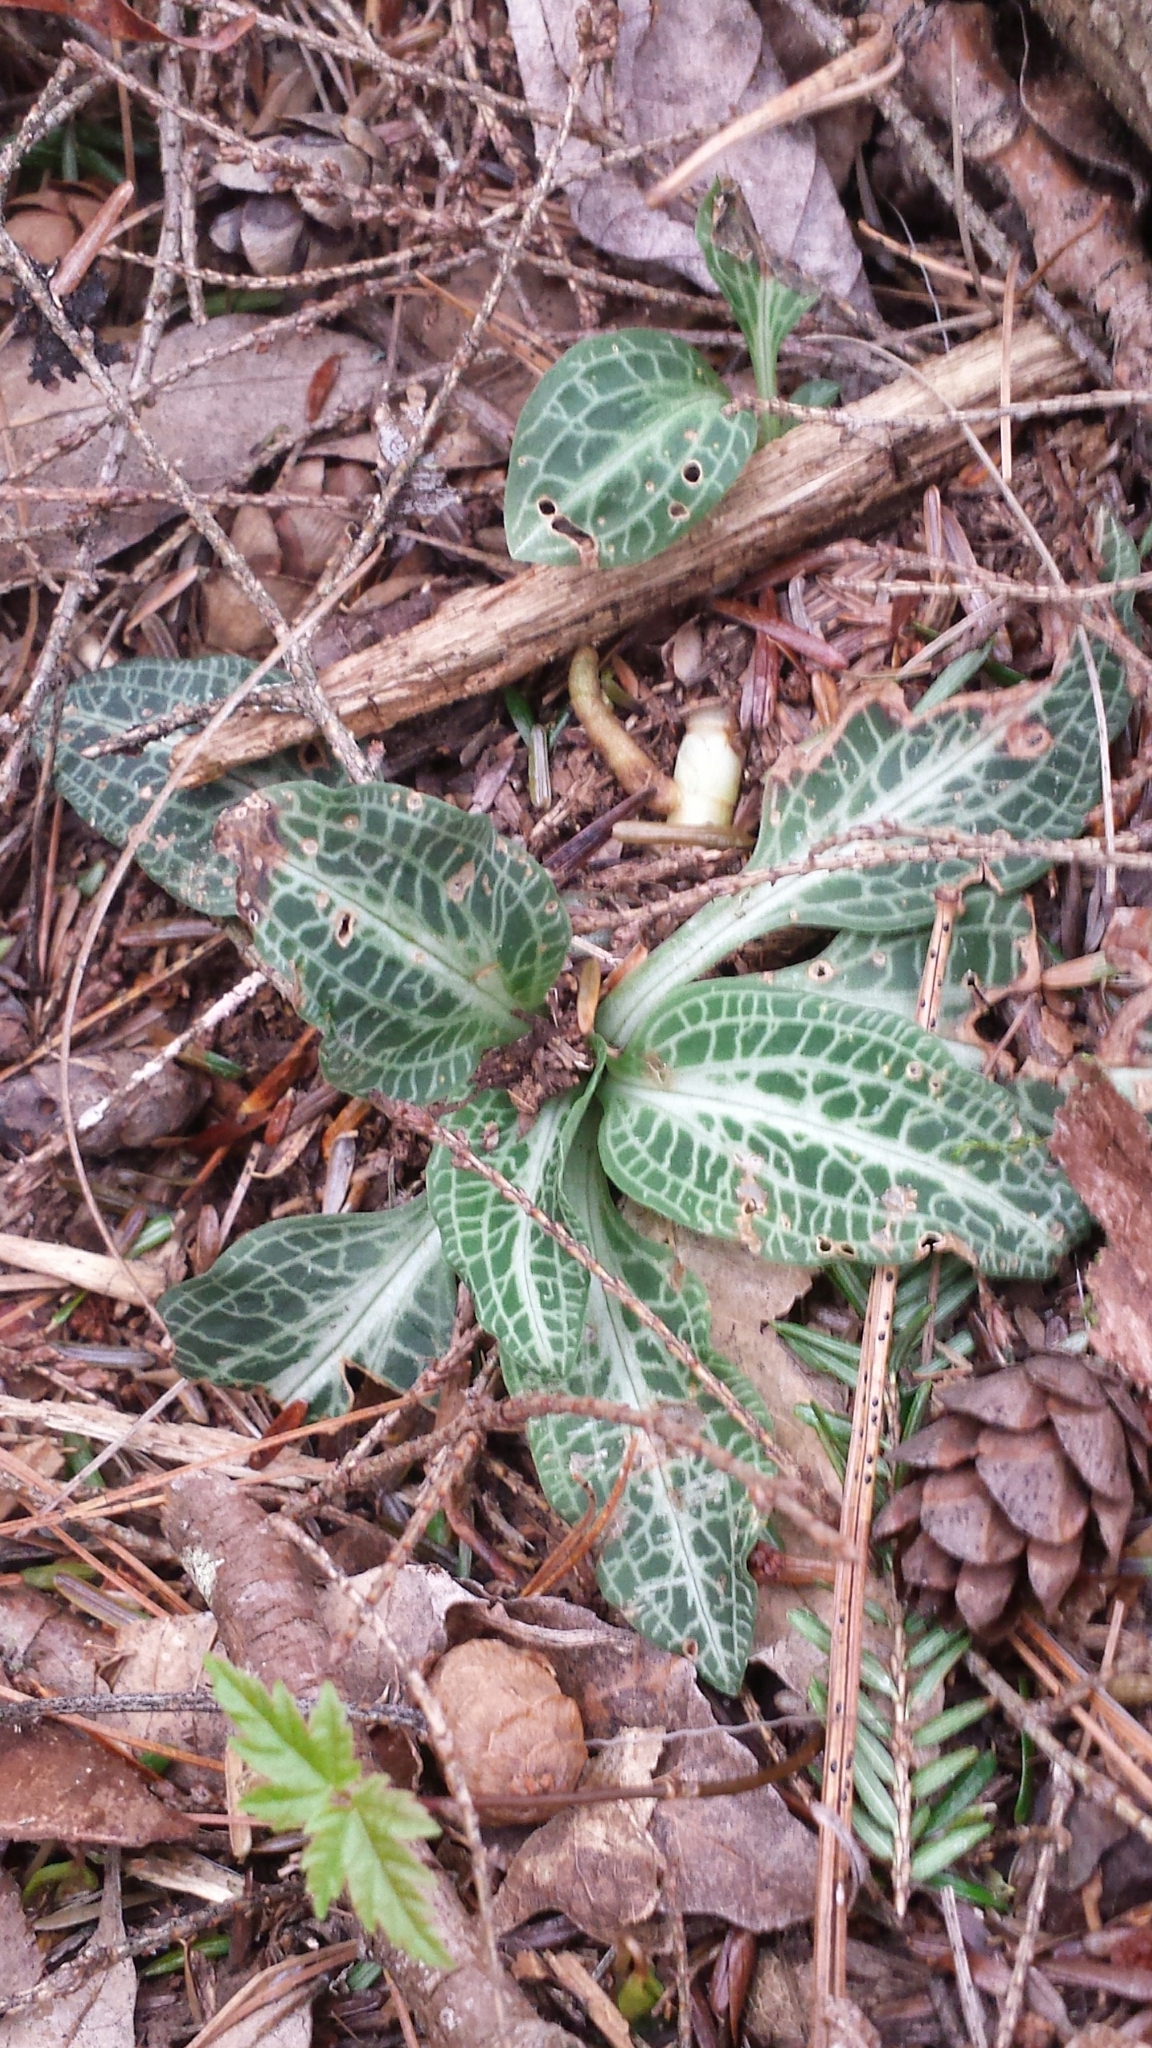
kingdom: Plantae
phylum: Tracheophyta
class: Liliopsida
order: Asparagales
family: Orchidaceae
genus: Goodyera
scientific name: Goodyera pubescens
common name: Downy rattlesnake-plantain
